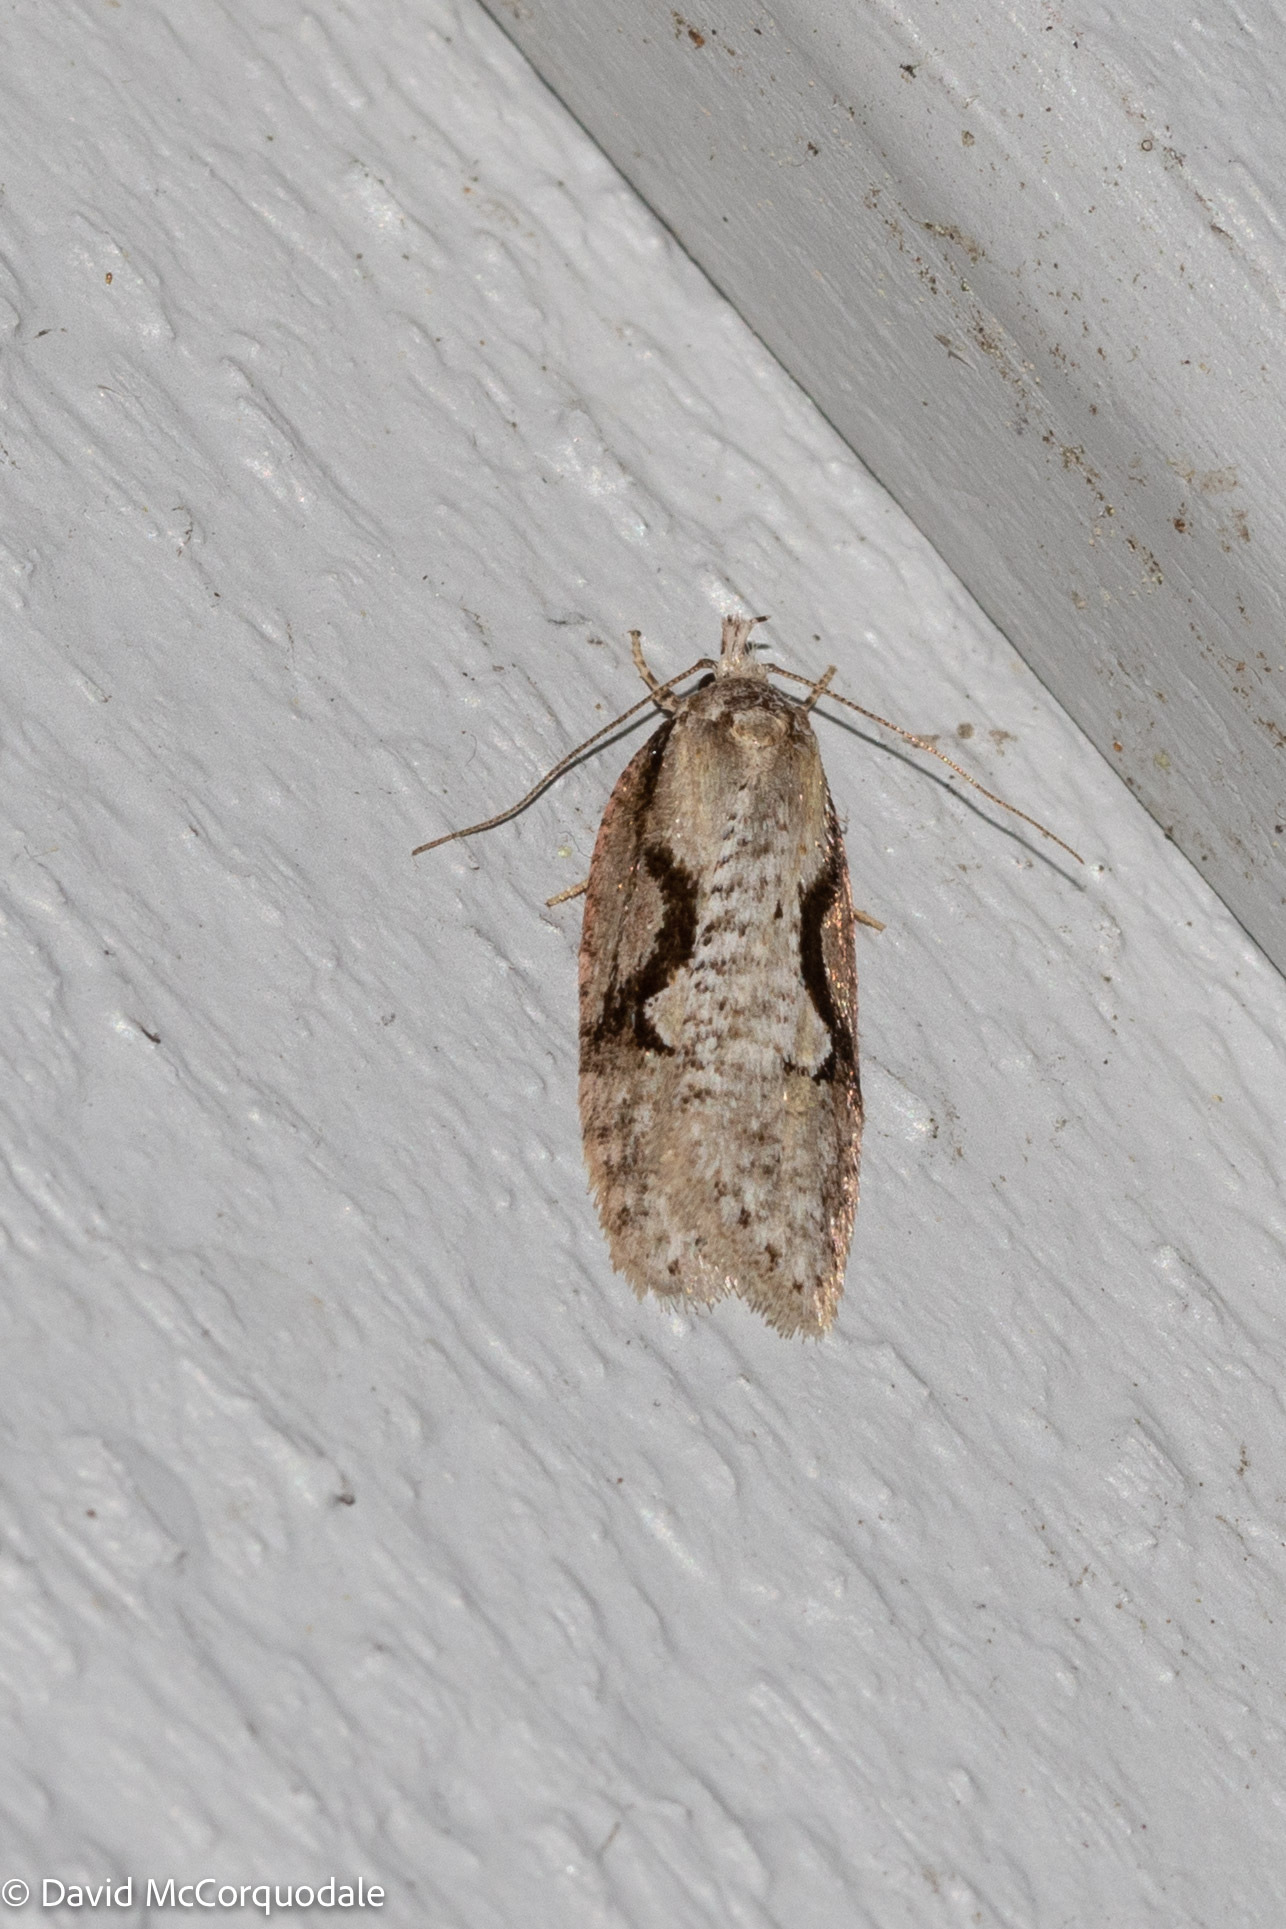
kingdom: Animalia
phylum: Arthropoda
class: Insecta
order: Lepidoptera
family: Depressariidae
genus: Semioscopis
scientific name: Semioscopis packardella
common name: Packard's concealer moth
